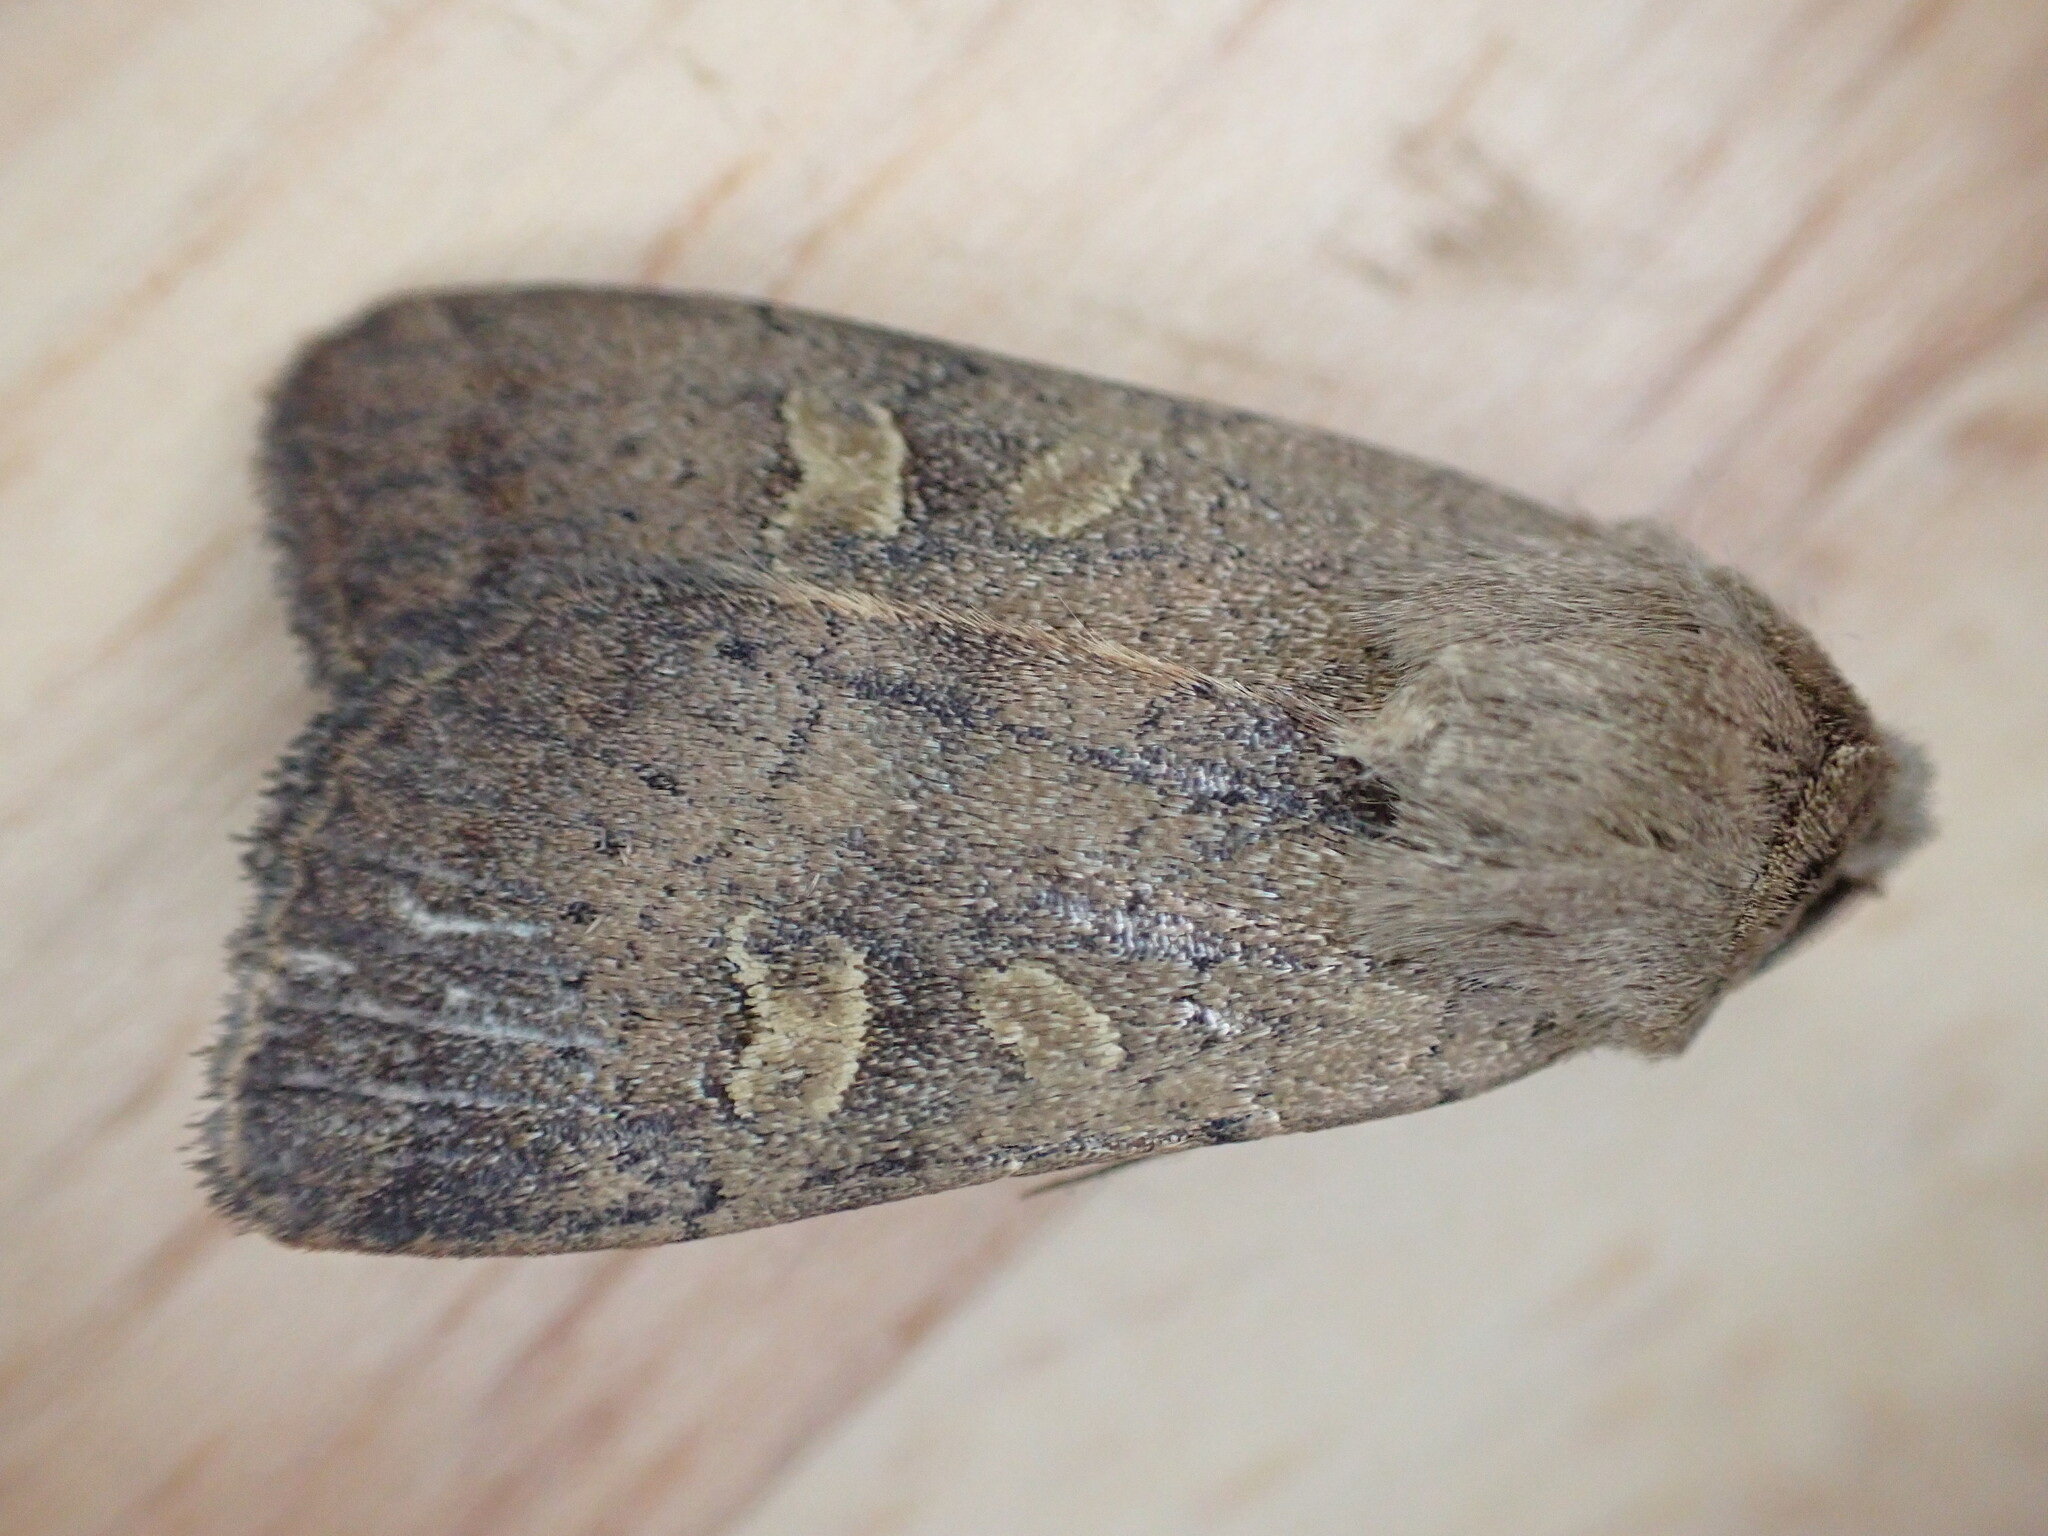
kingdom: Animalia
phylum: Arthropoda
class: Insecta
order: Lepidoptera
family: Noctuidae
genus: Xestia
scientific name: Xestia xanthographa
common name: Square-spot rustic
